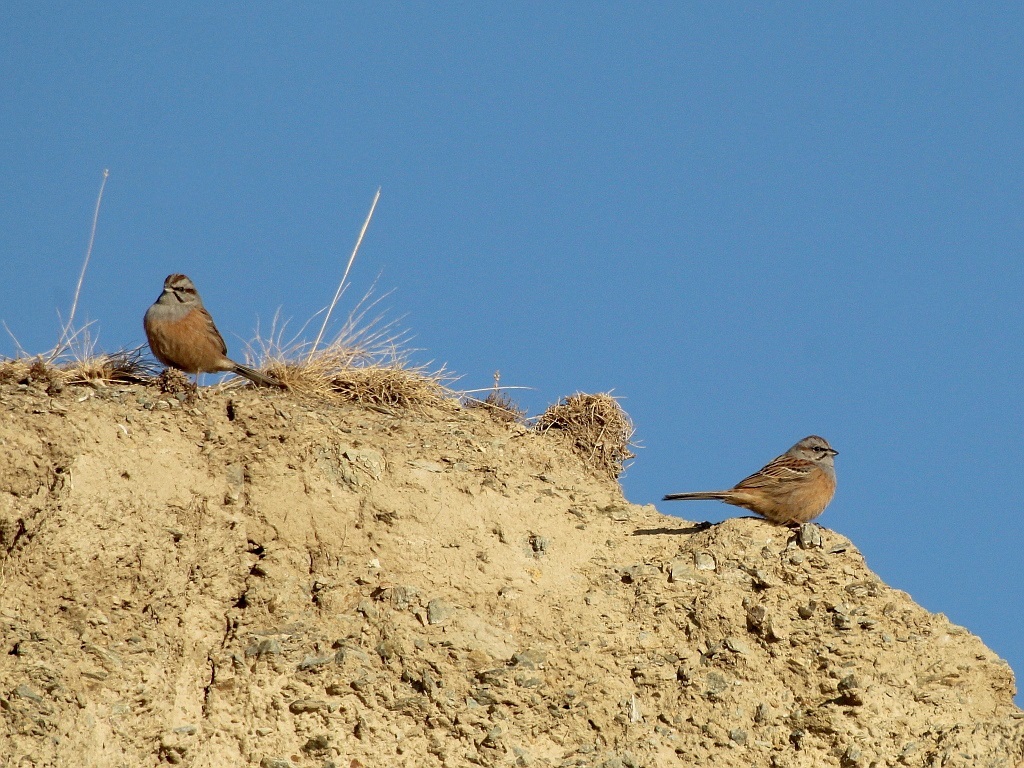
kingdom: Animalia
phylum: Chordata
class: Aves
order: Passeriformes
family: Emberizidae
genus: Emberiza
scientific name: Emberiza godlewskii
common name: Godlewski's bunting
